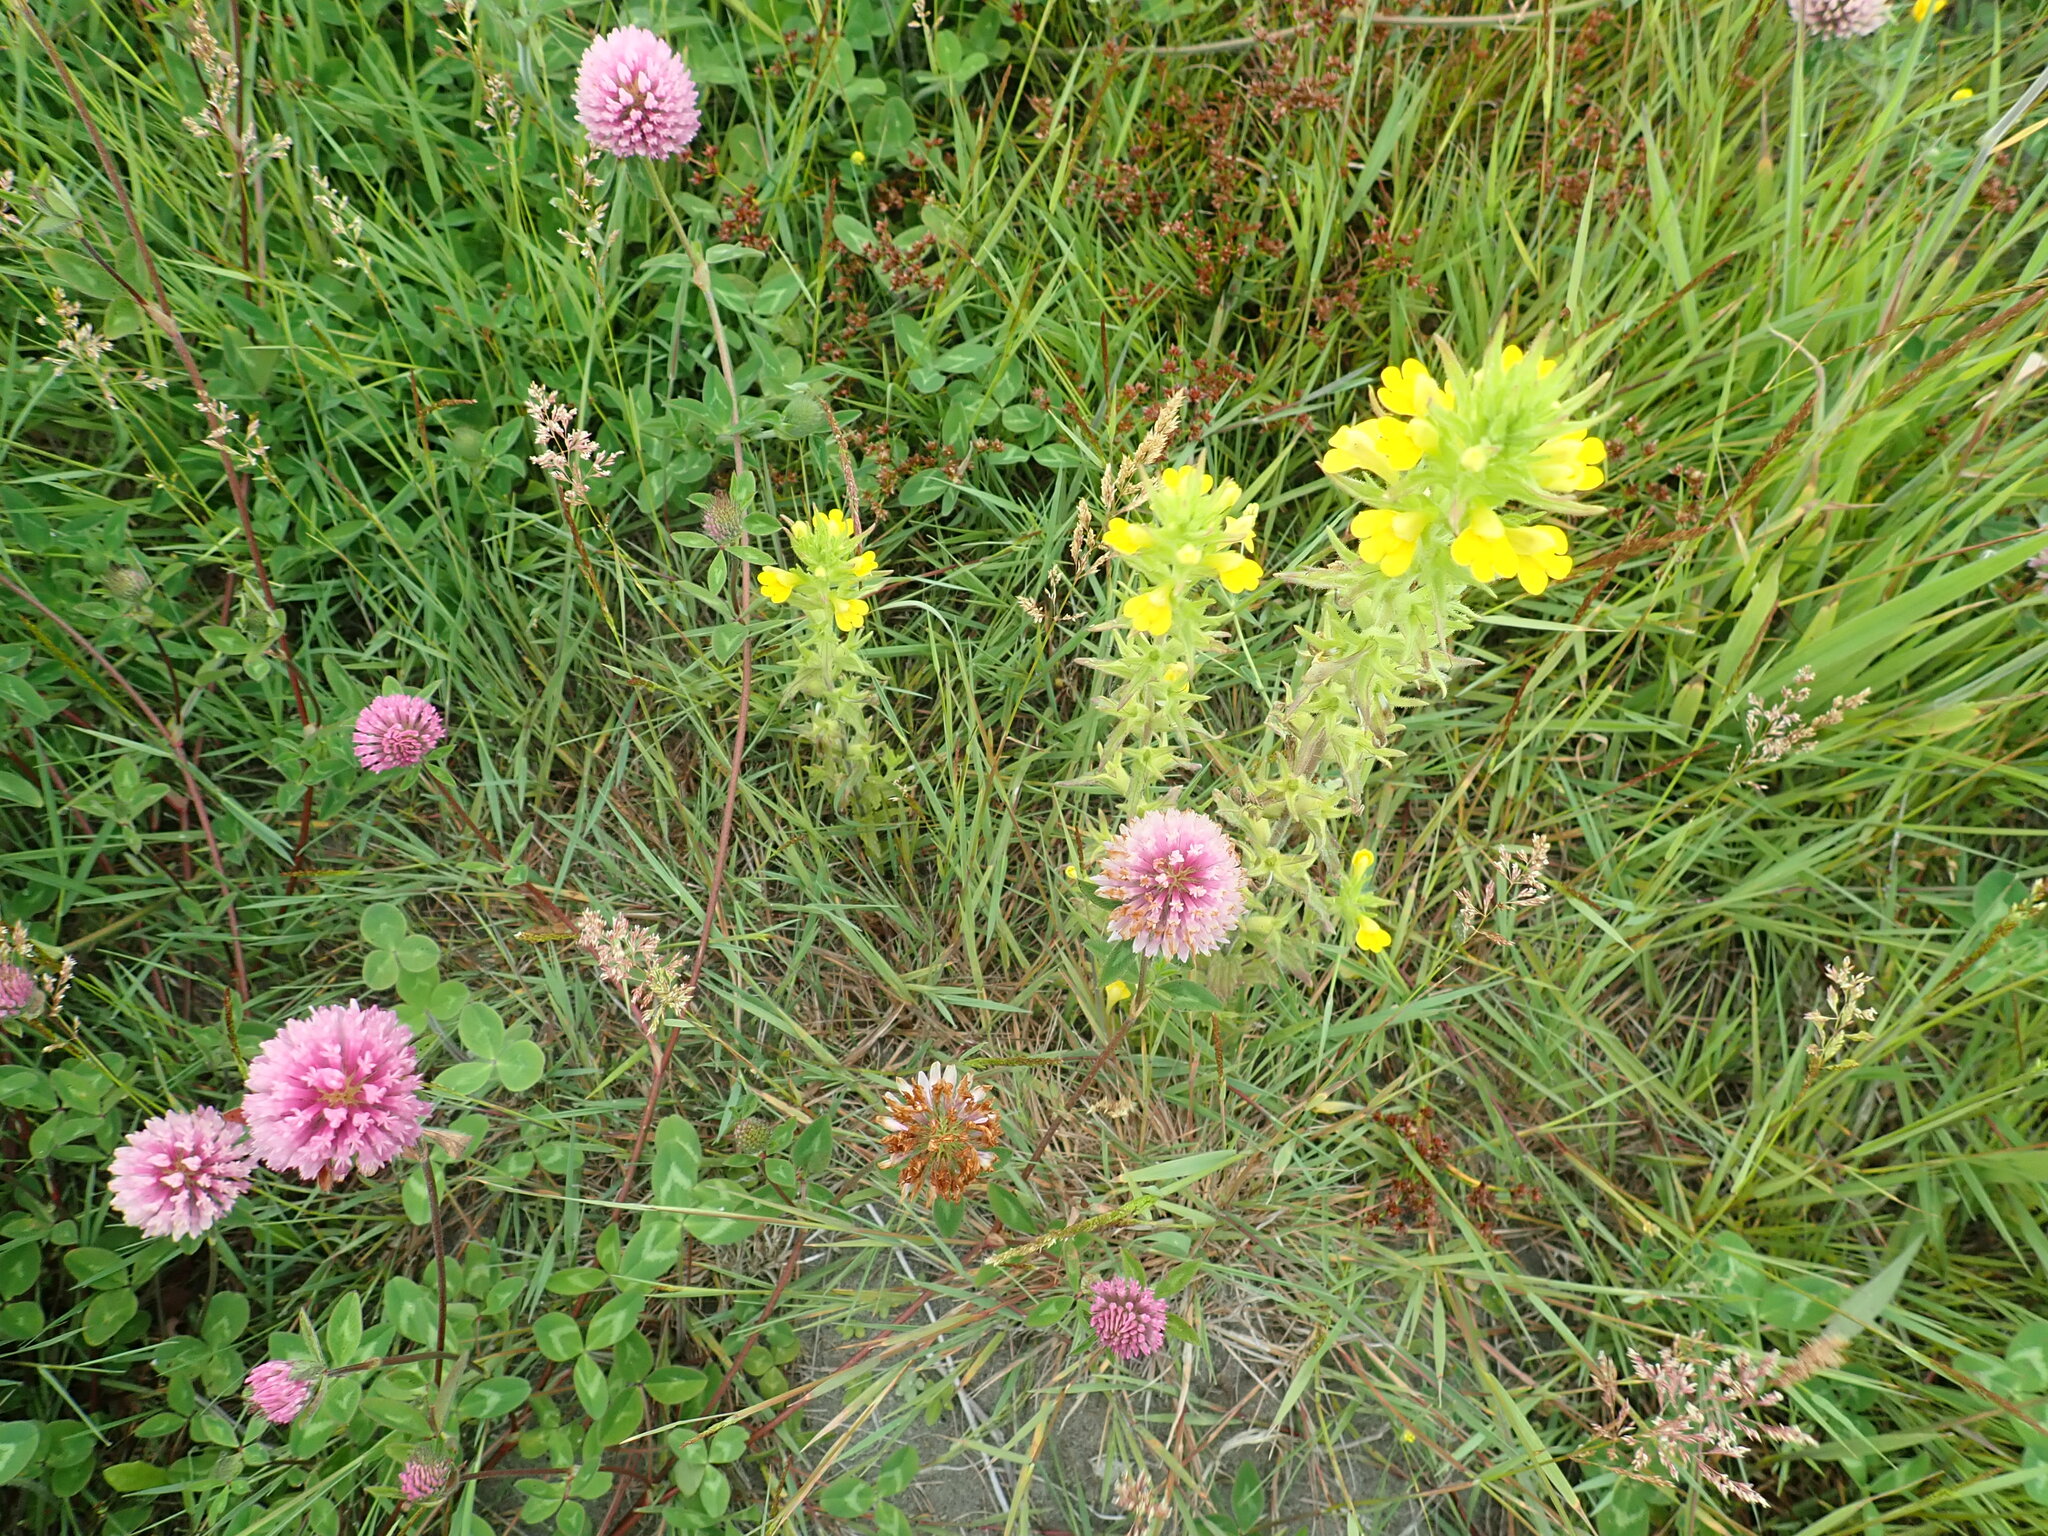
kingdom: Plantae
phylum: Tracheophyta
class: Magnoliopsida
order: Lamiales
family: Orobanchaceae
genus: Bellardia
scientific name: Bellardia viscosa
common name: Sticky parentucellia
